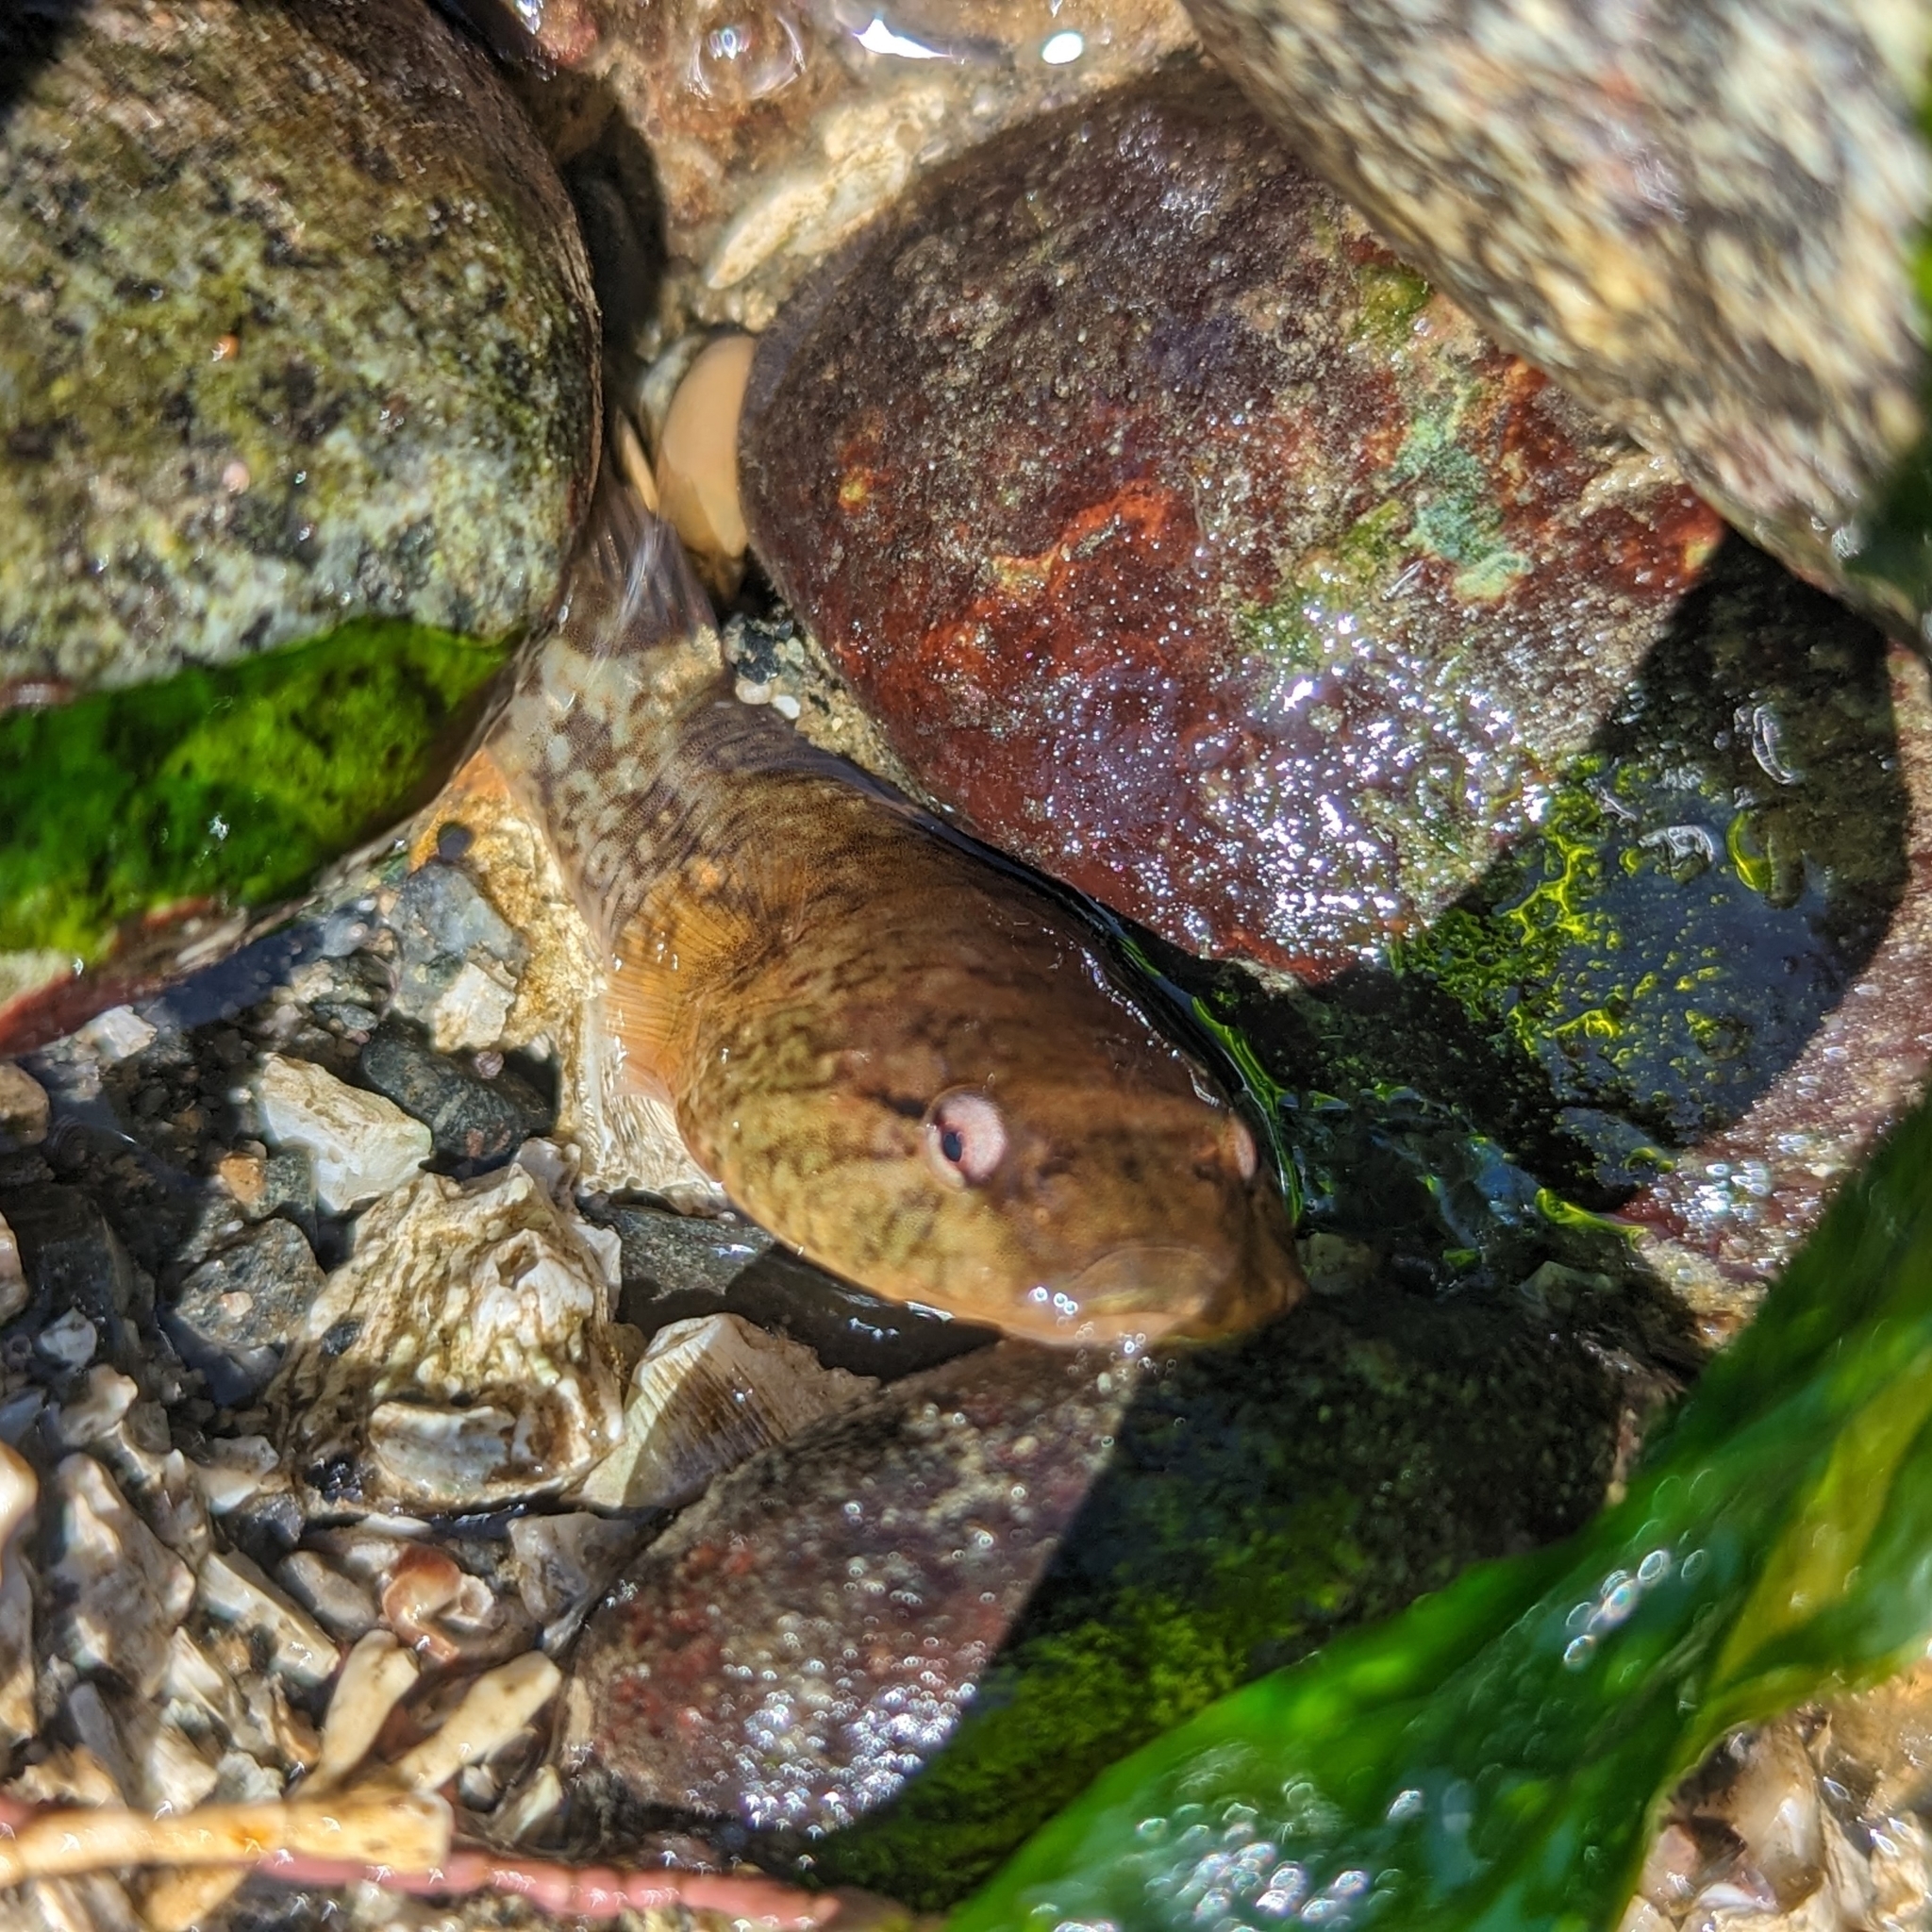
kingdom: Animalia
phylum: Chordata
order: Gobiesociformes
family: Gobiesocidae
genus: Gobiesox
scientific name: Gobiesox maeandricus
